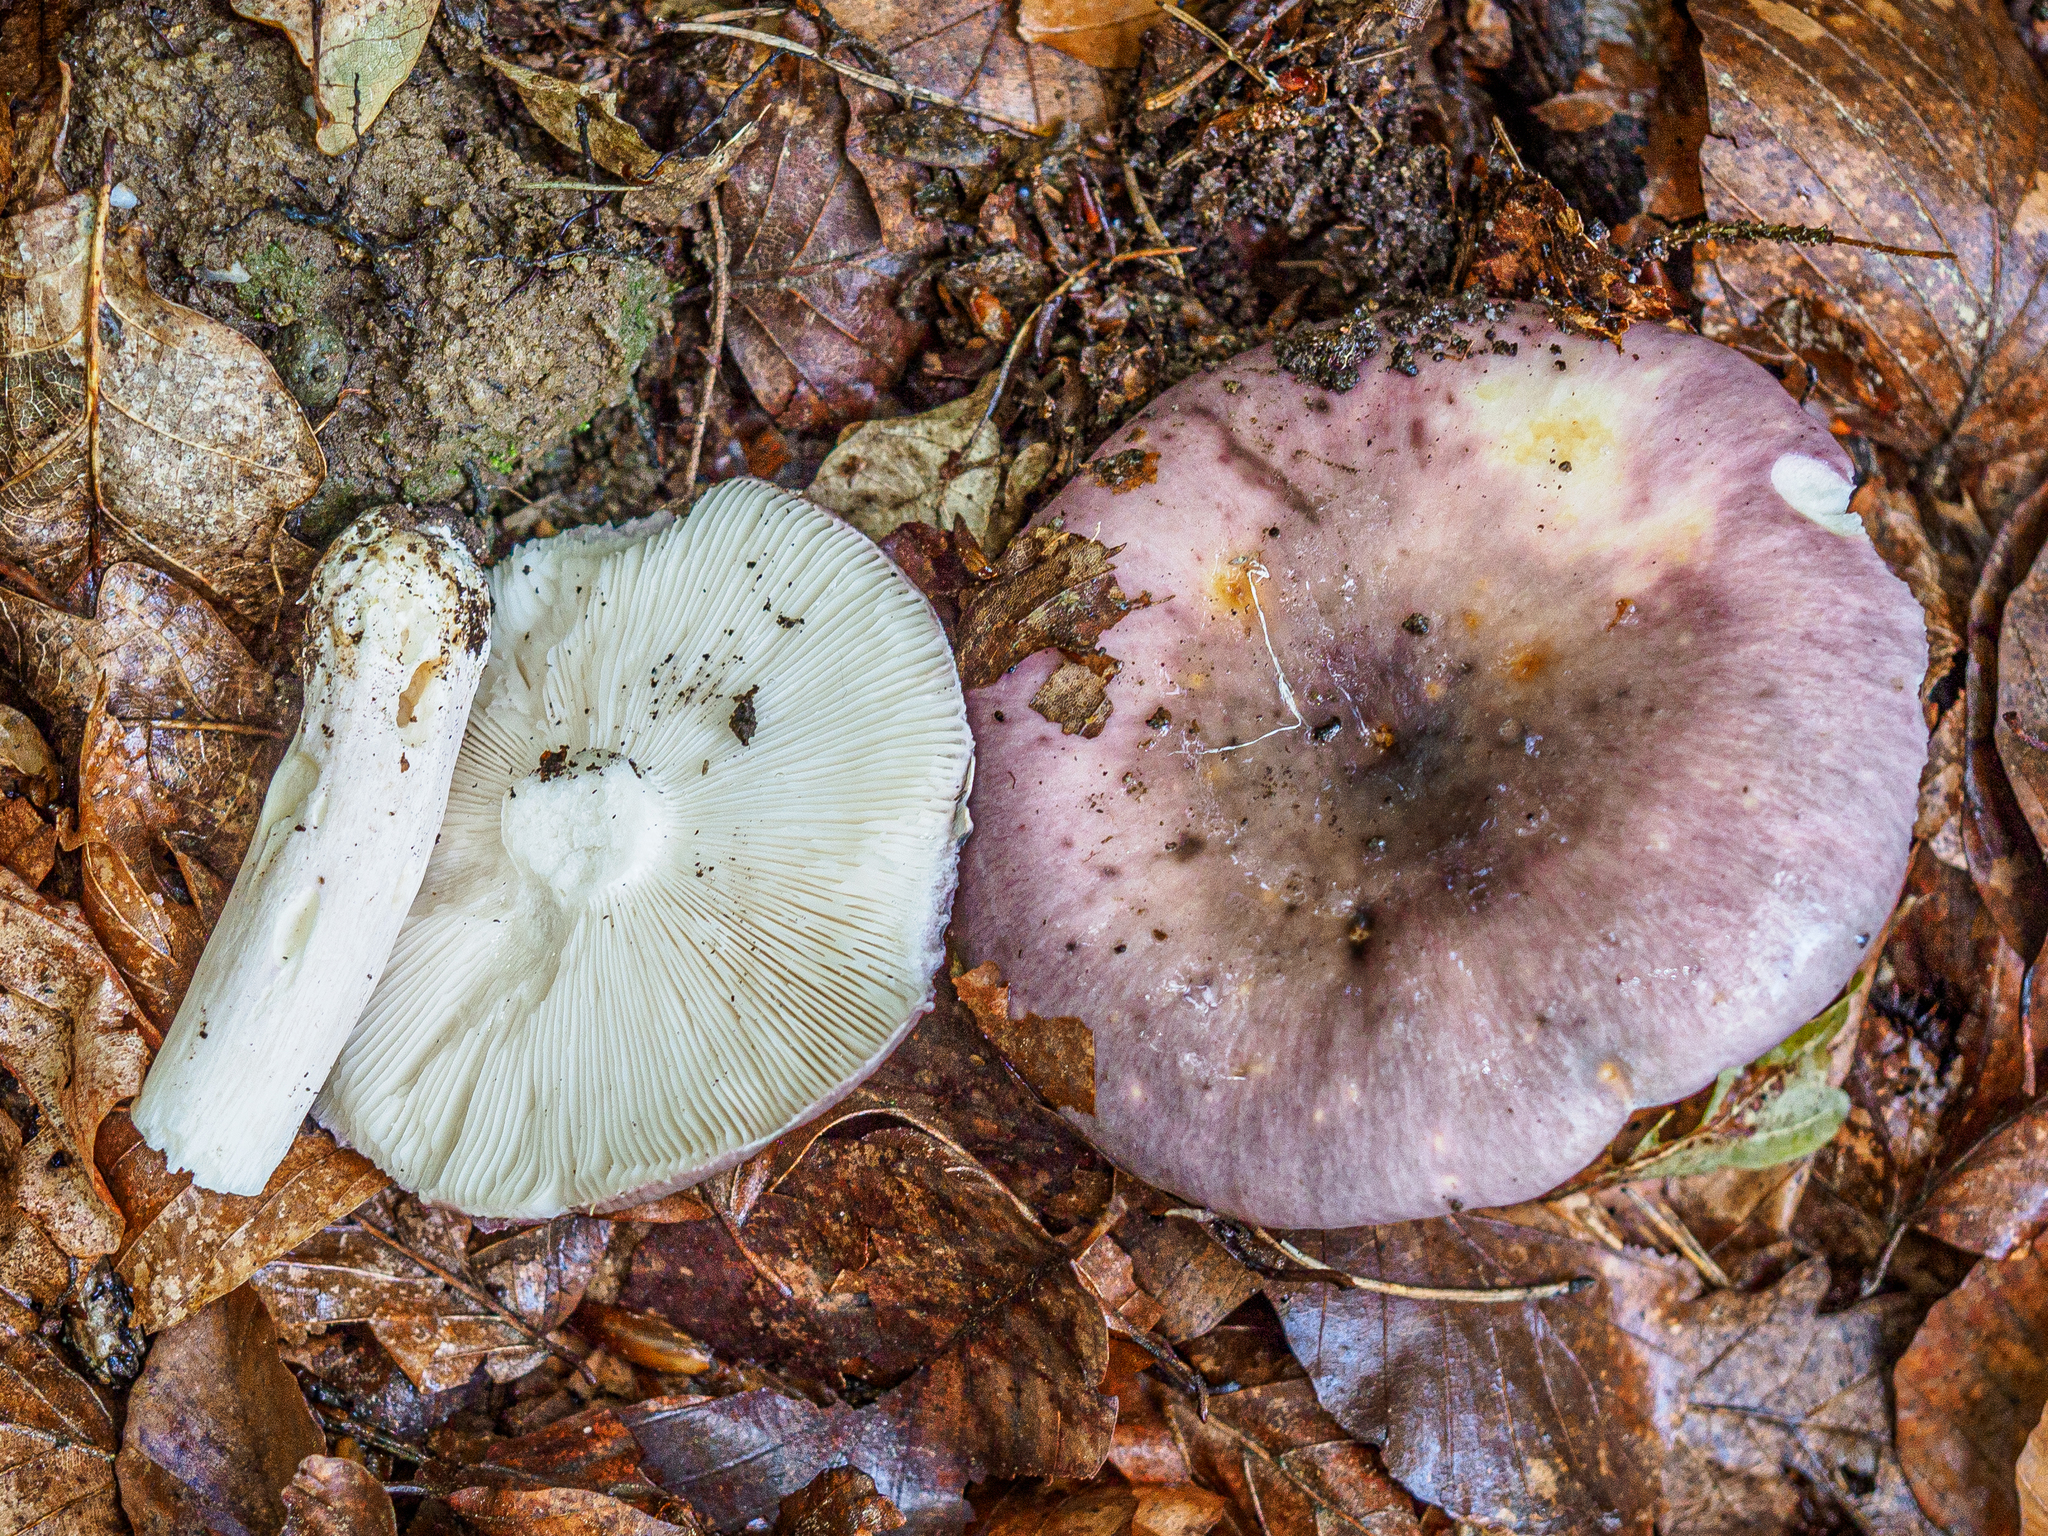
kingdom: Fungi
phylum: Basidiomycota
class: Agaricomycetes
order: Russulales
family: Russulaceae
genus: Russula
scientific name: Russula cyanoxantha
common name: Charcoal burner
